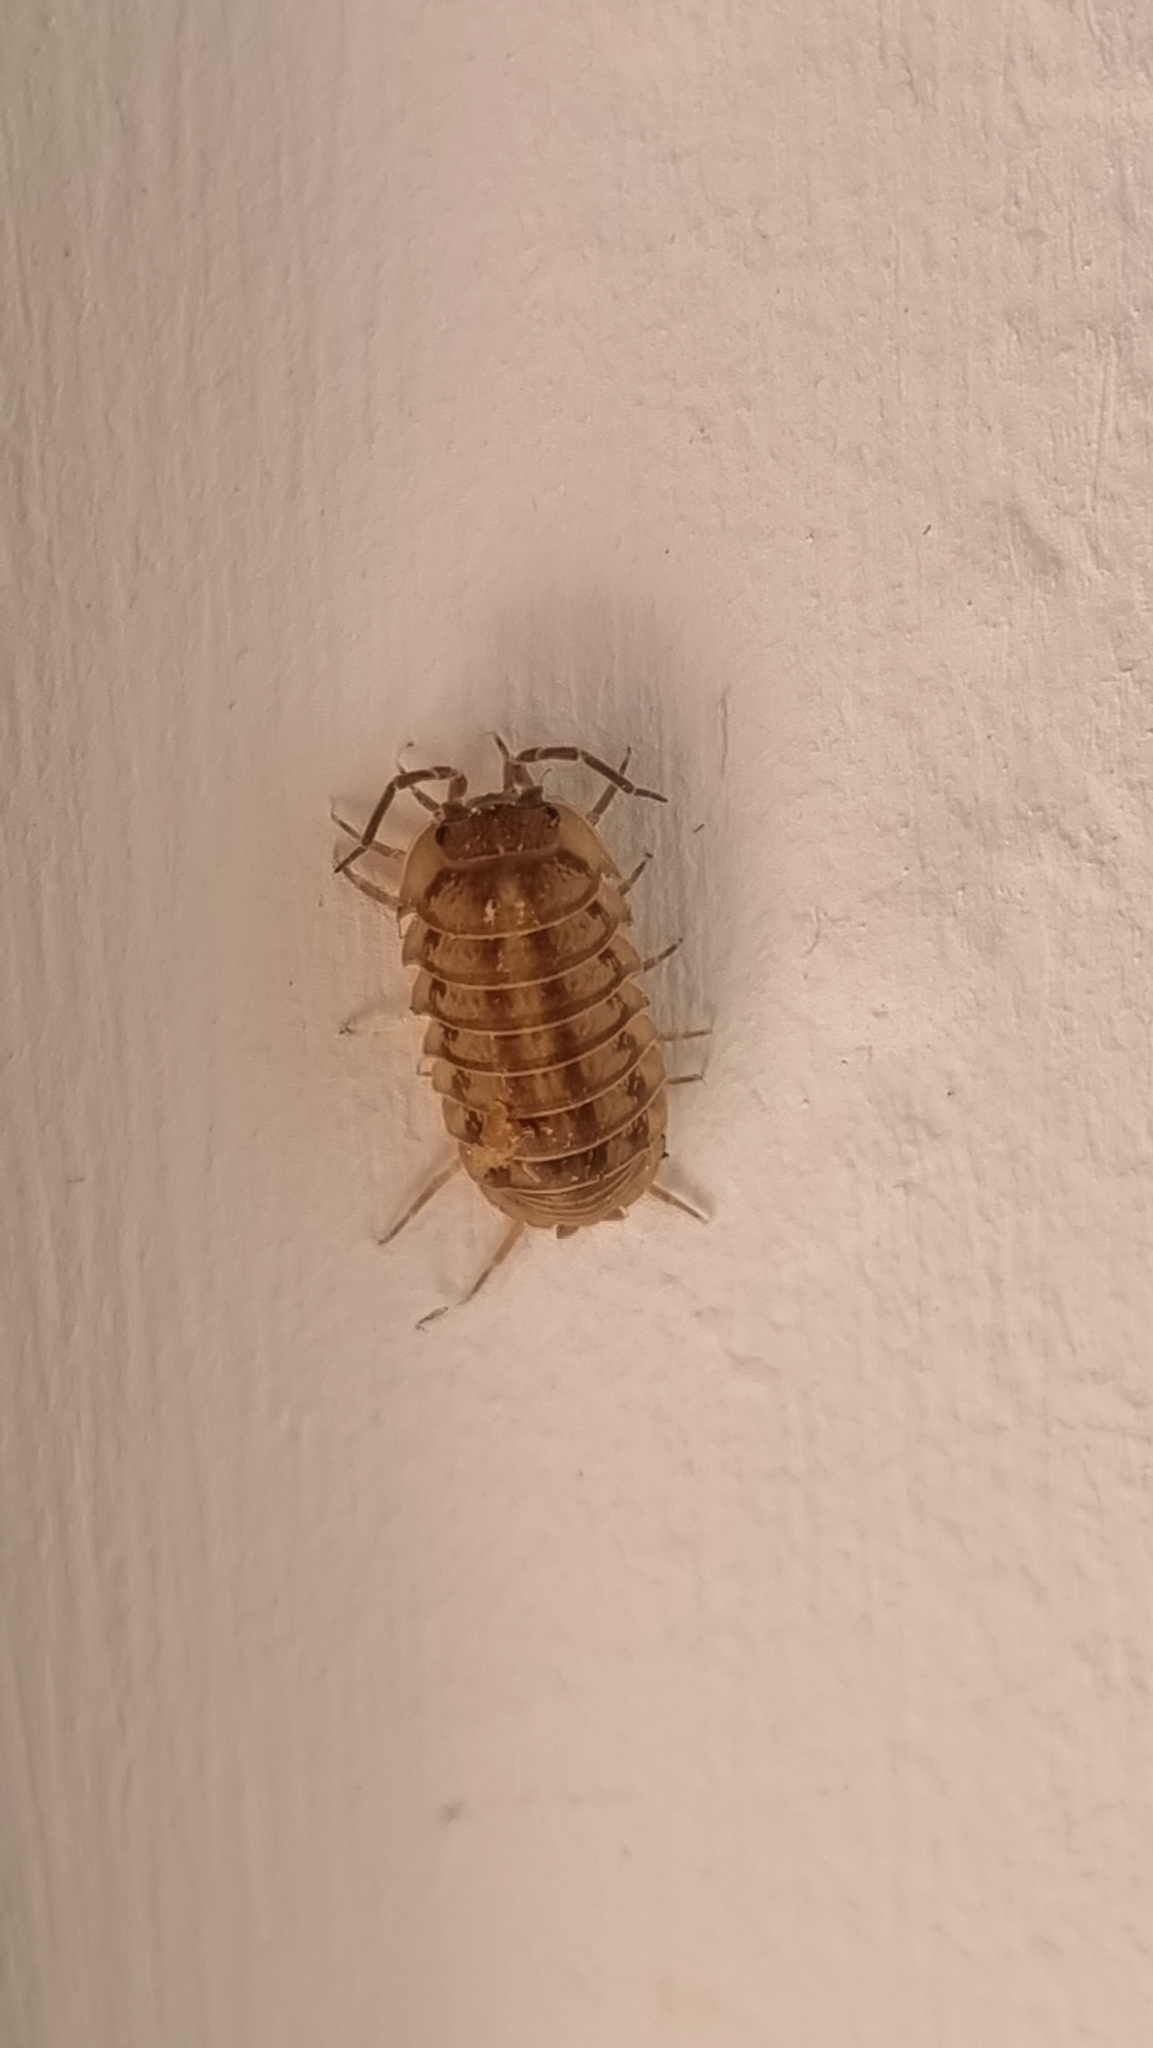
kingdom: Animalia
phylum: Arthropoda
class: Malacostraca
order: Isopoda
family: Armadillidiidae
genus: Armadillidium
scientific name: Armadillidium nasatum
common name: Isopod
